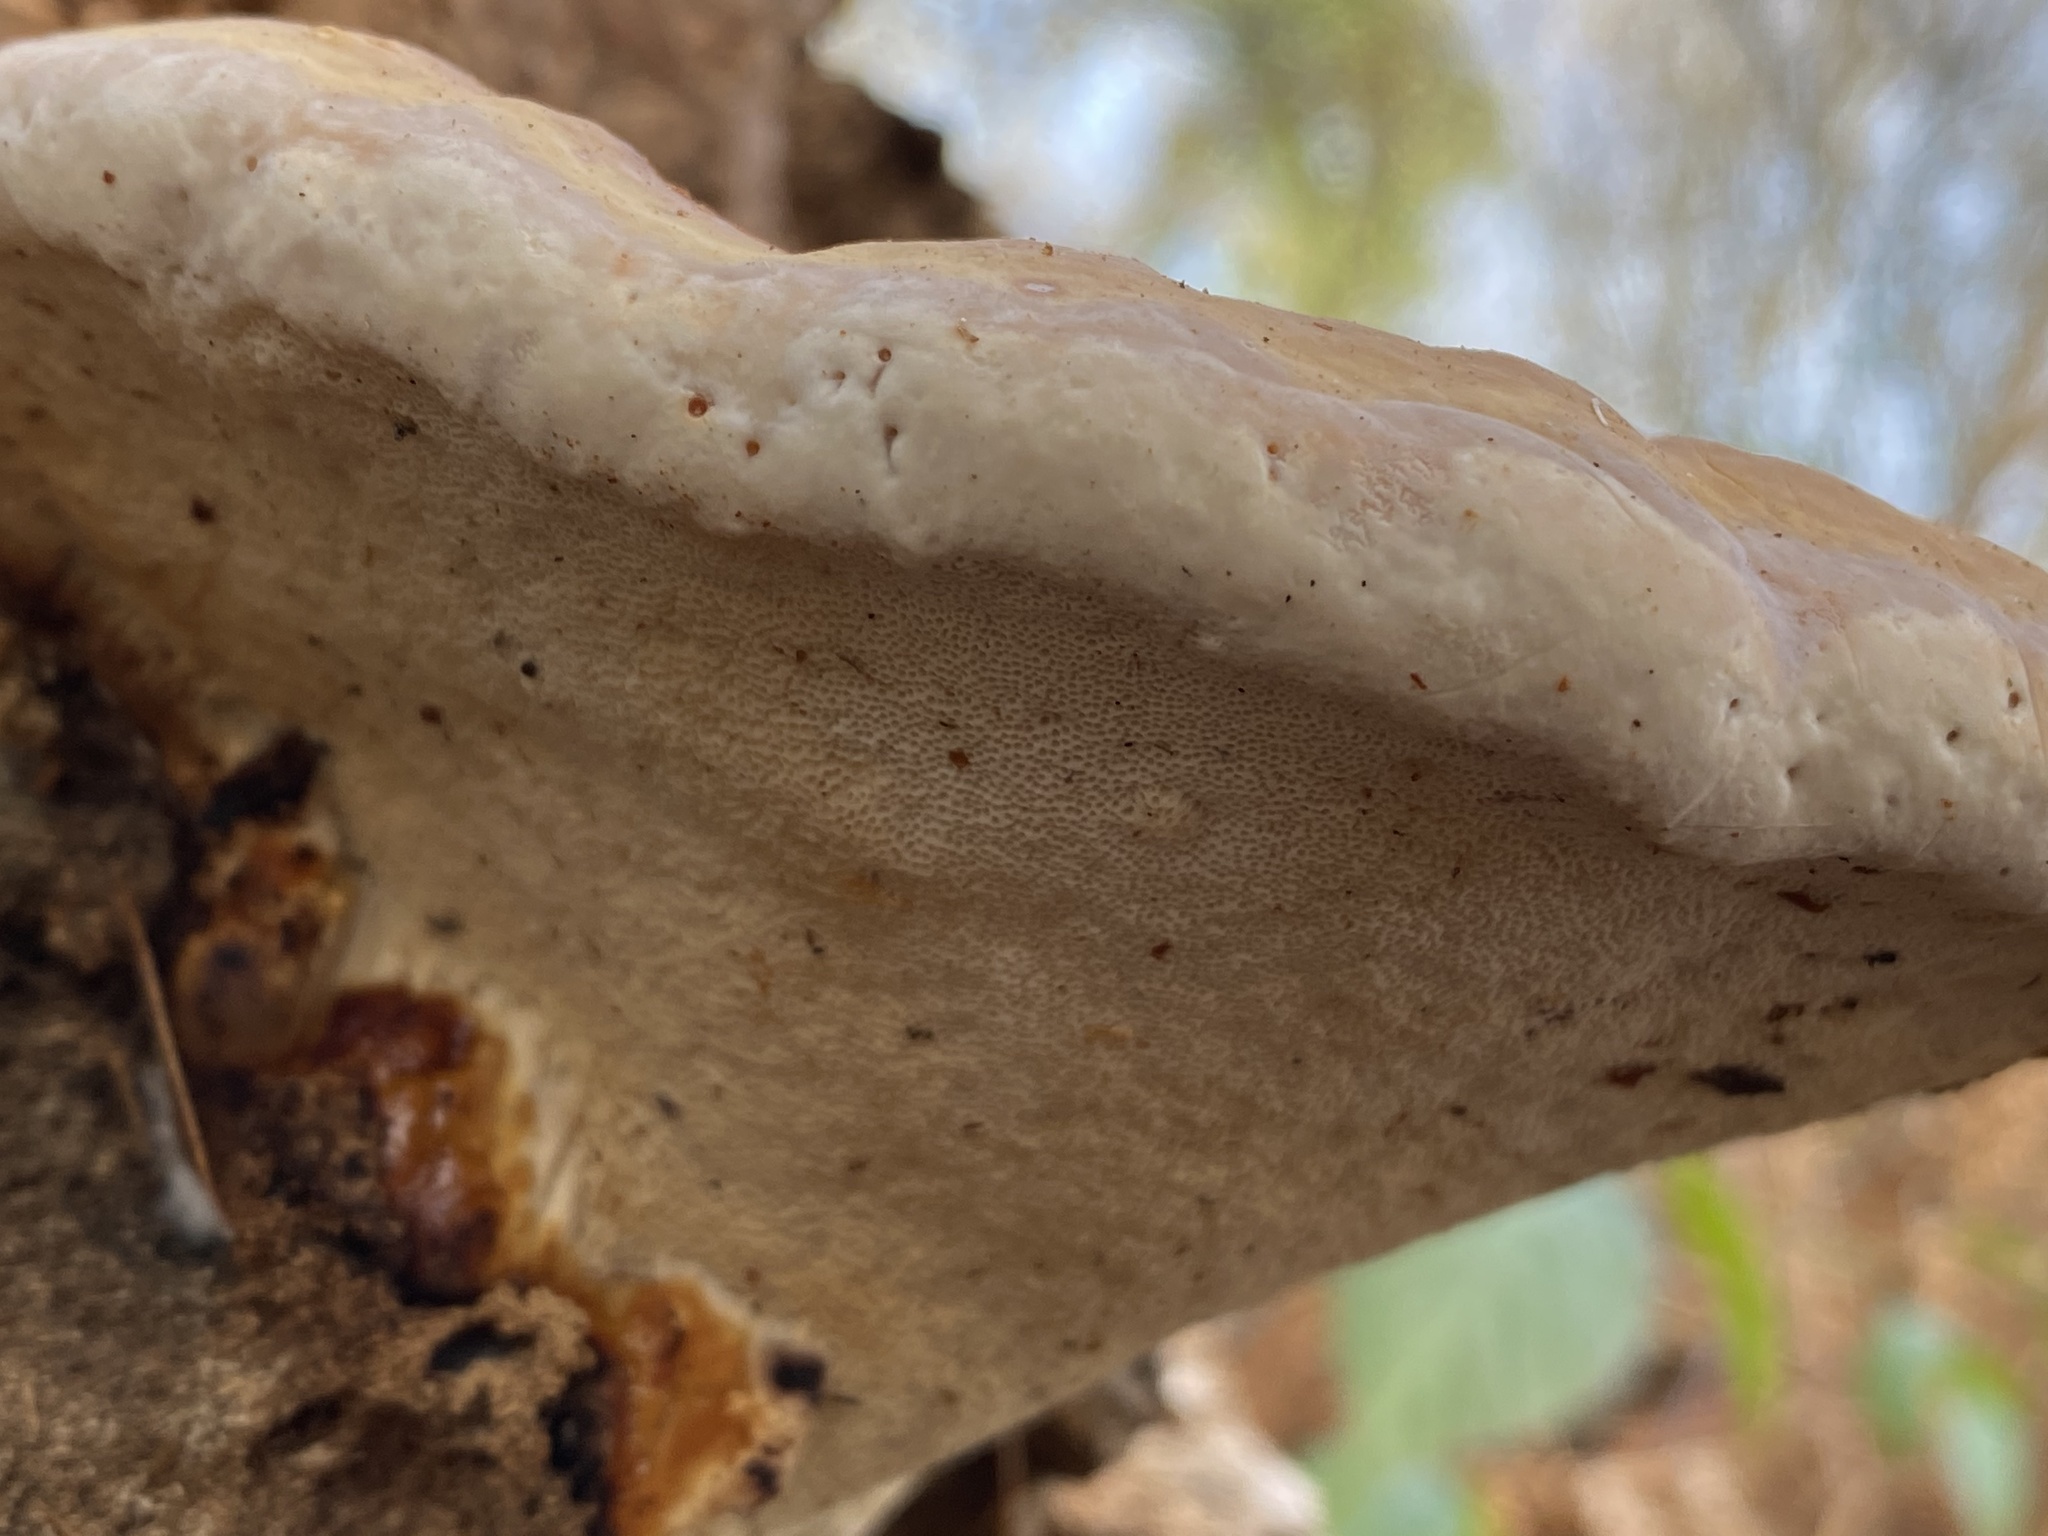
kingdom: Fungi
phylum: Basidiomycota
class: Agaricomycetes
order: Polyporales
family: Fomitopsidaceae
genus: Fomitopsis
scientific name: Fomitopsis pinicola
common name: Red-belted bracket
